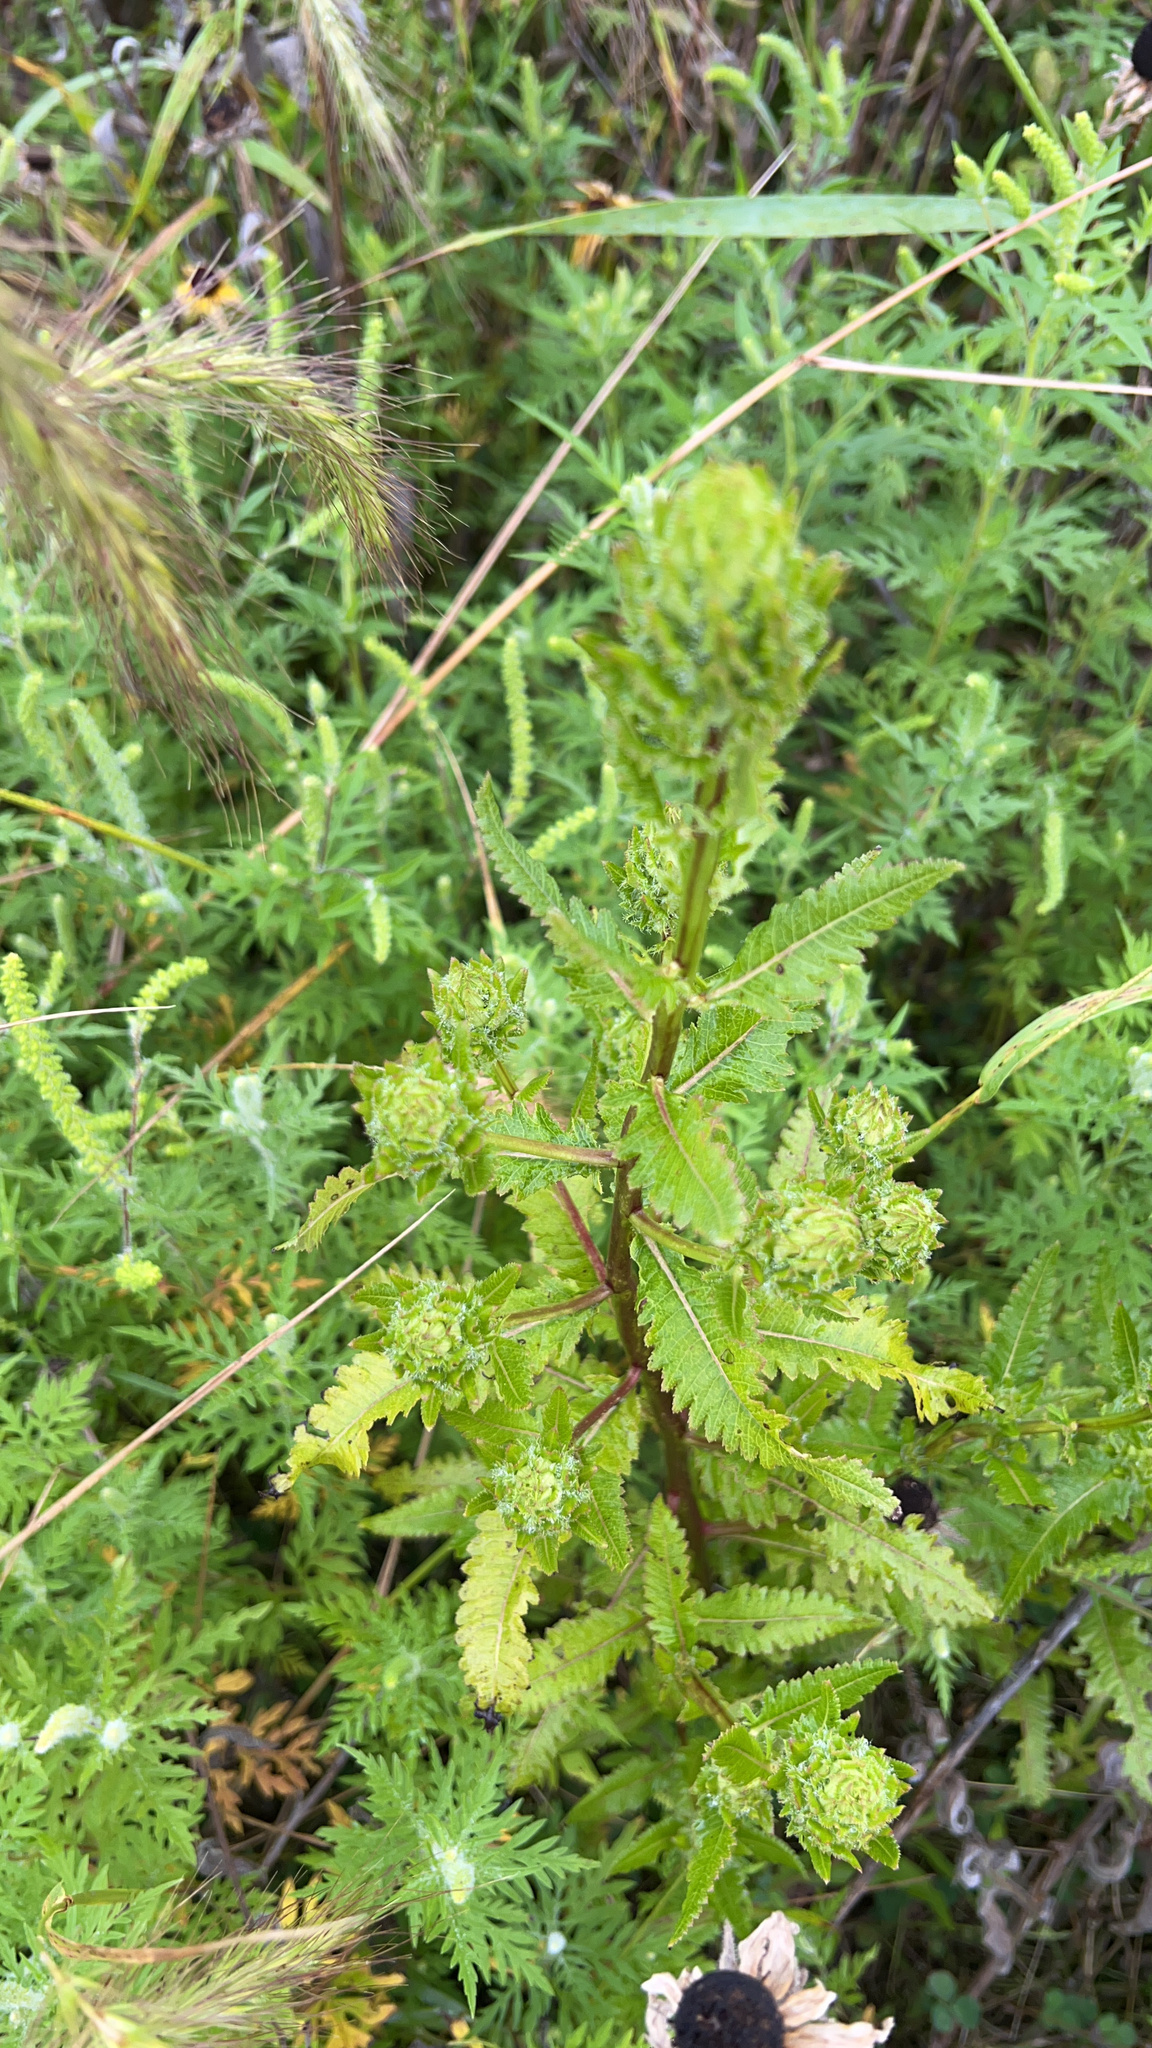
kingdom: Plantae
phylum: Tracheophyta
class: Magnoliopsida
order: Lamiales
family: Orobanchaceae
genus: Pedicularis
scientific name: Pedicularis lanceolata
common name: Swamp lousewort
